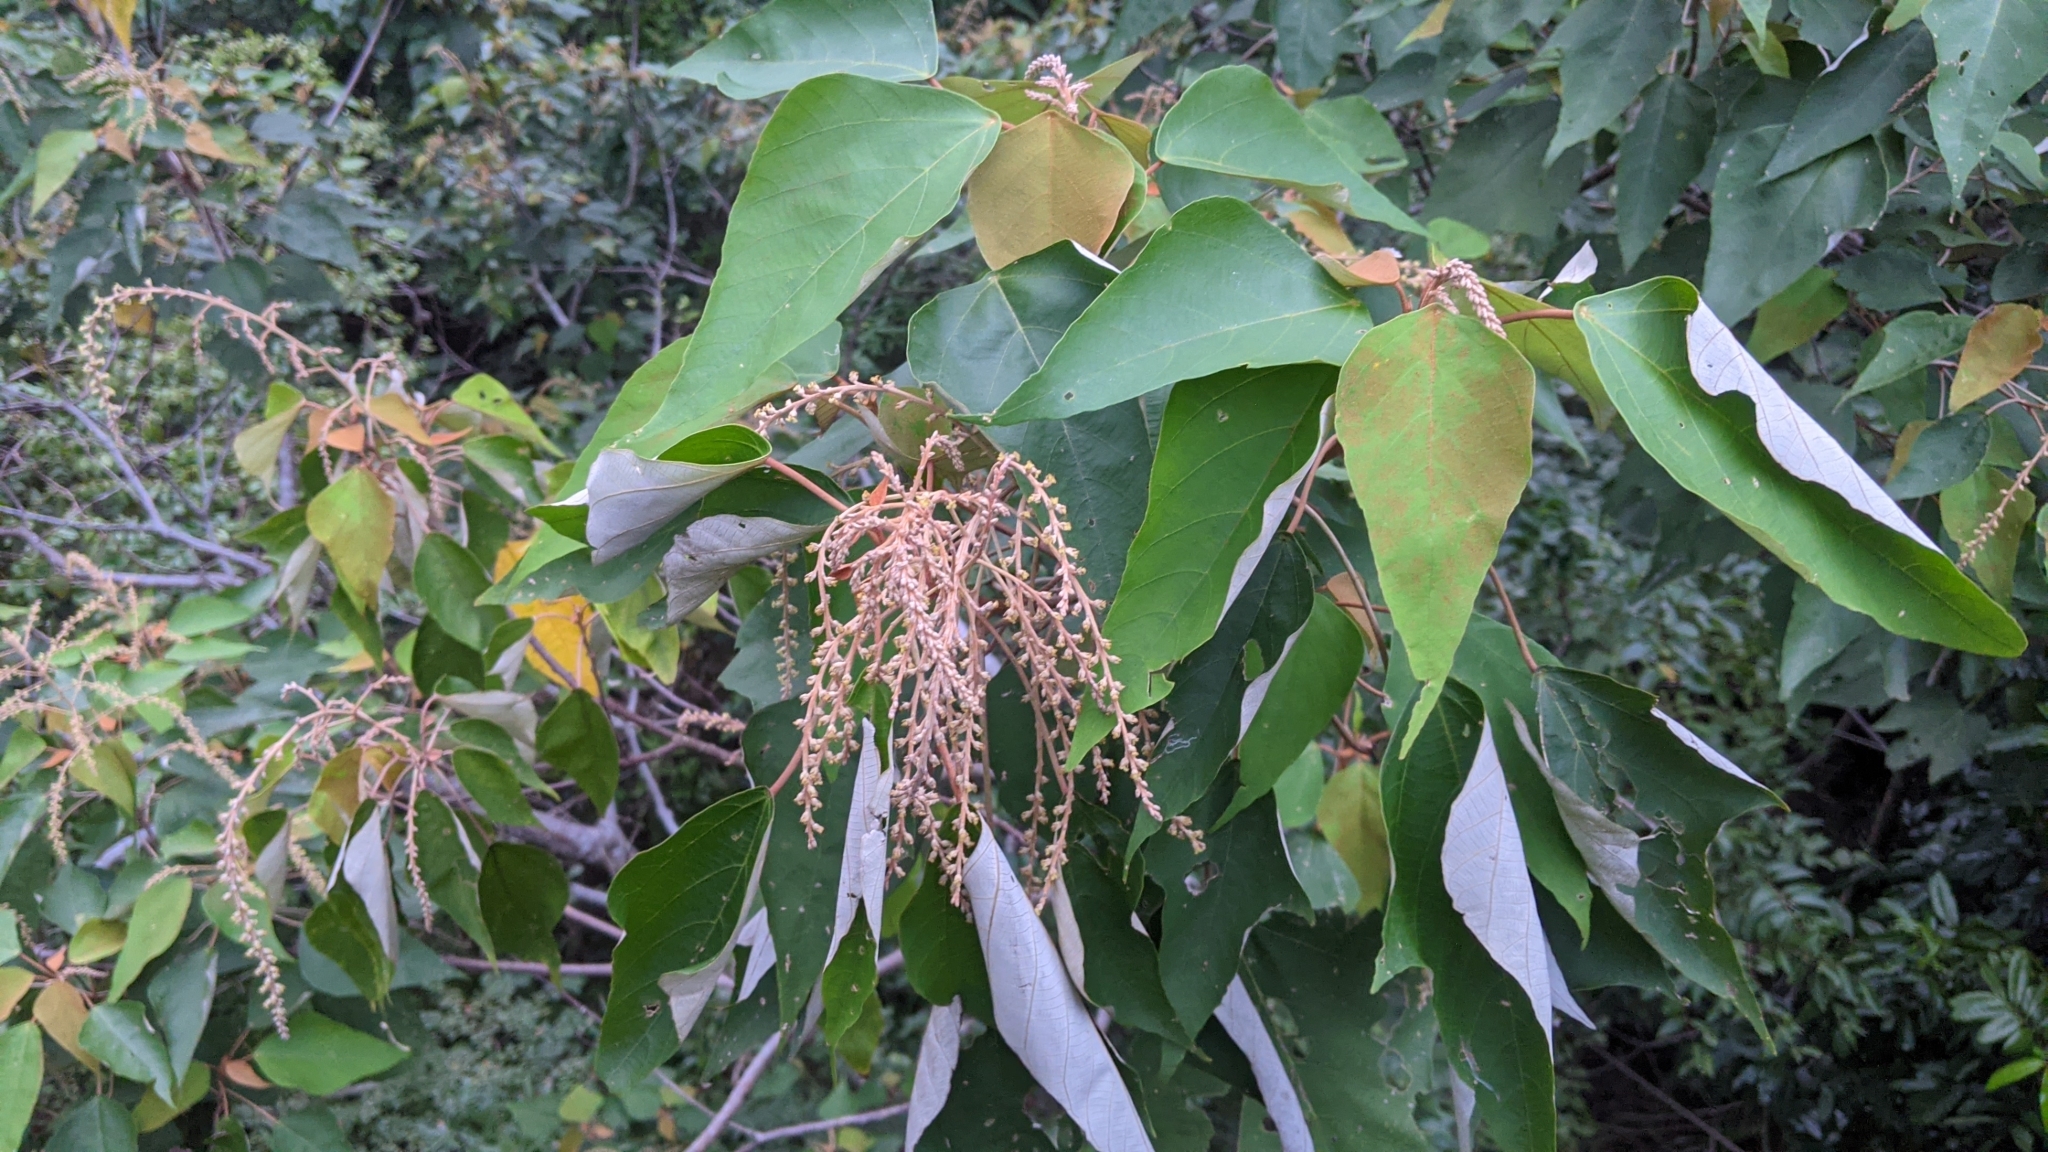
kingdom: Plantae
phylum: Tracheophyta
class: Magnoliopsida
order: Malpighiales
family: Euphorbiaceae
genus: Mallotus
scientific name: Mallotus paniculatus
